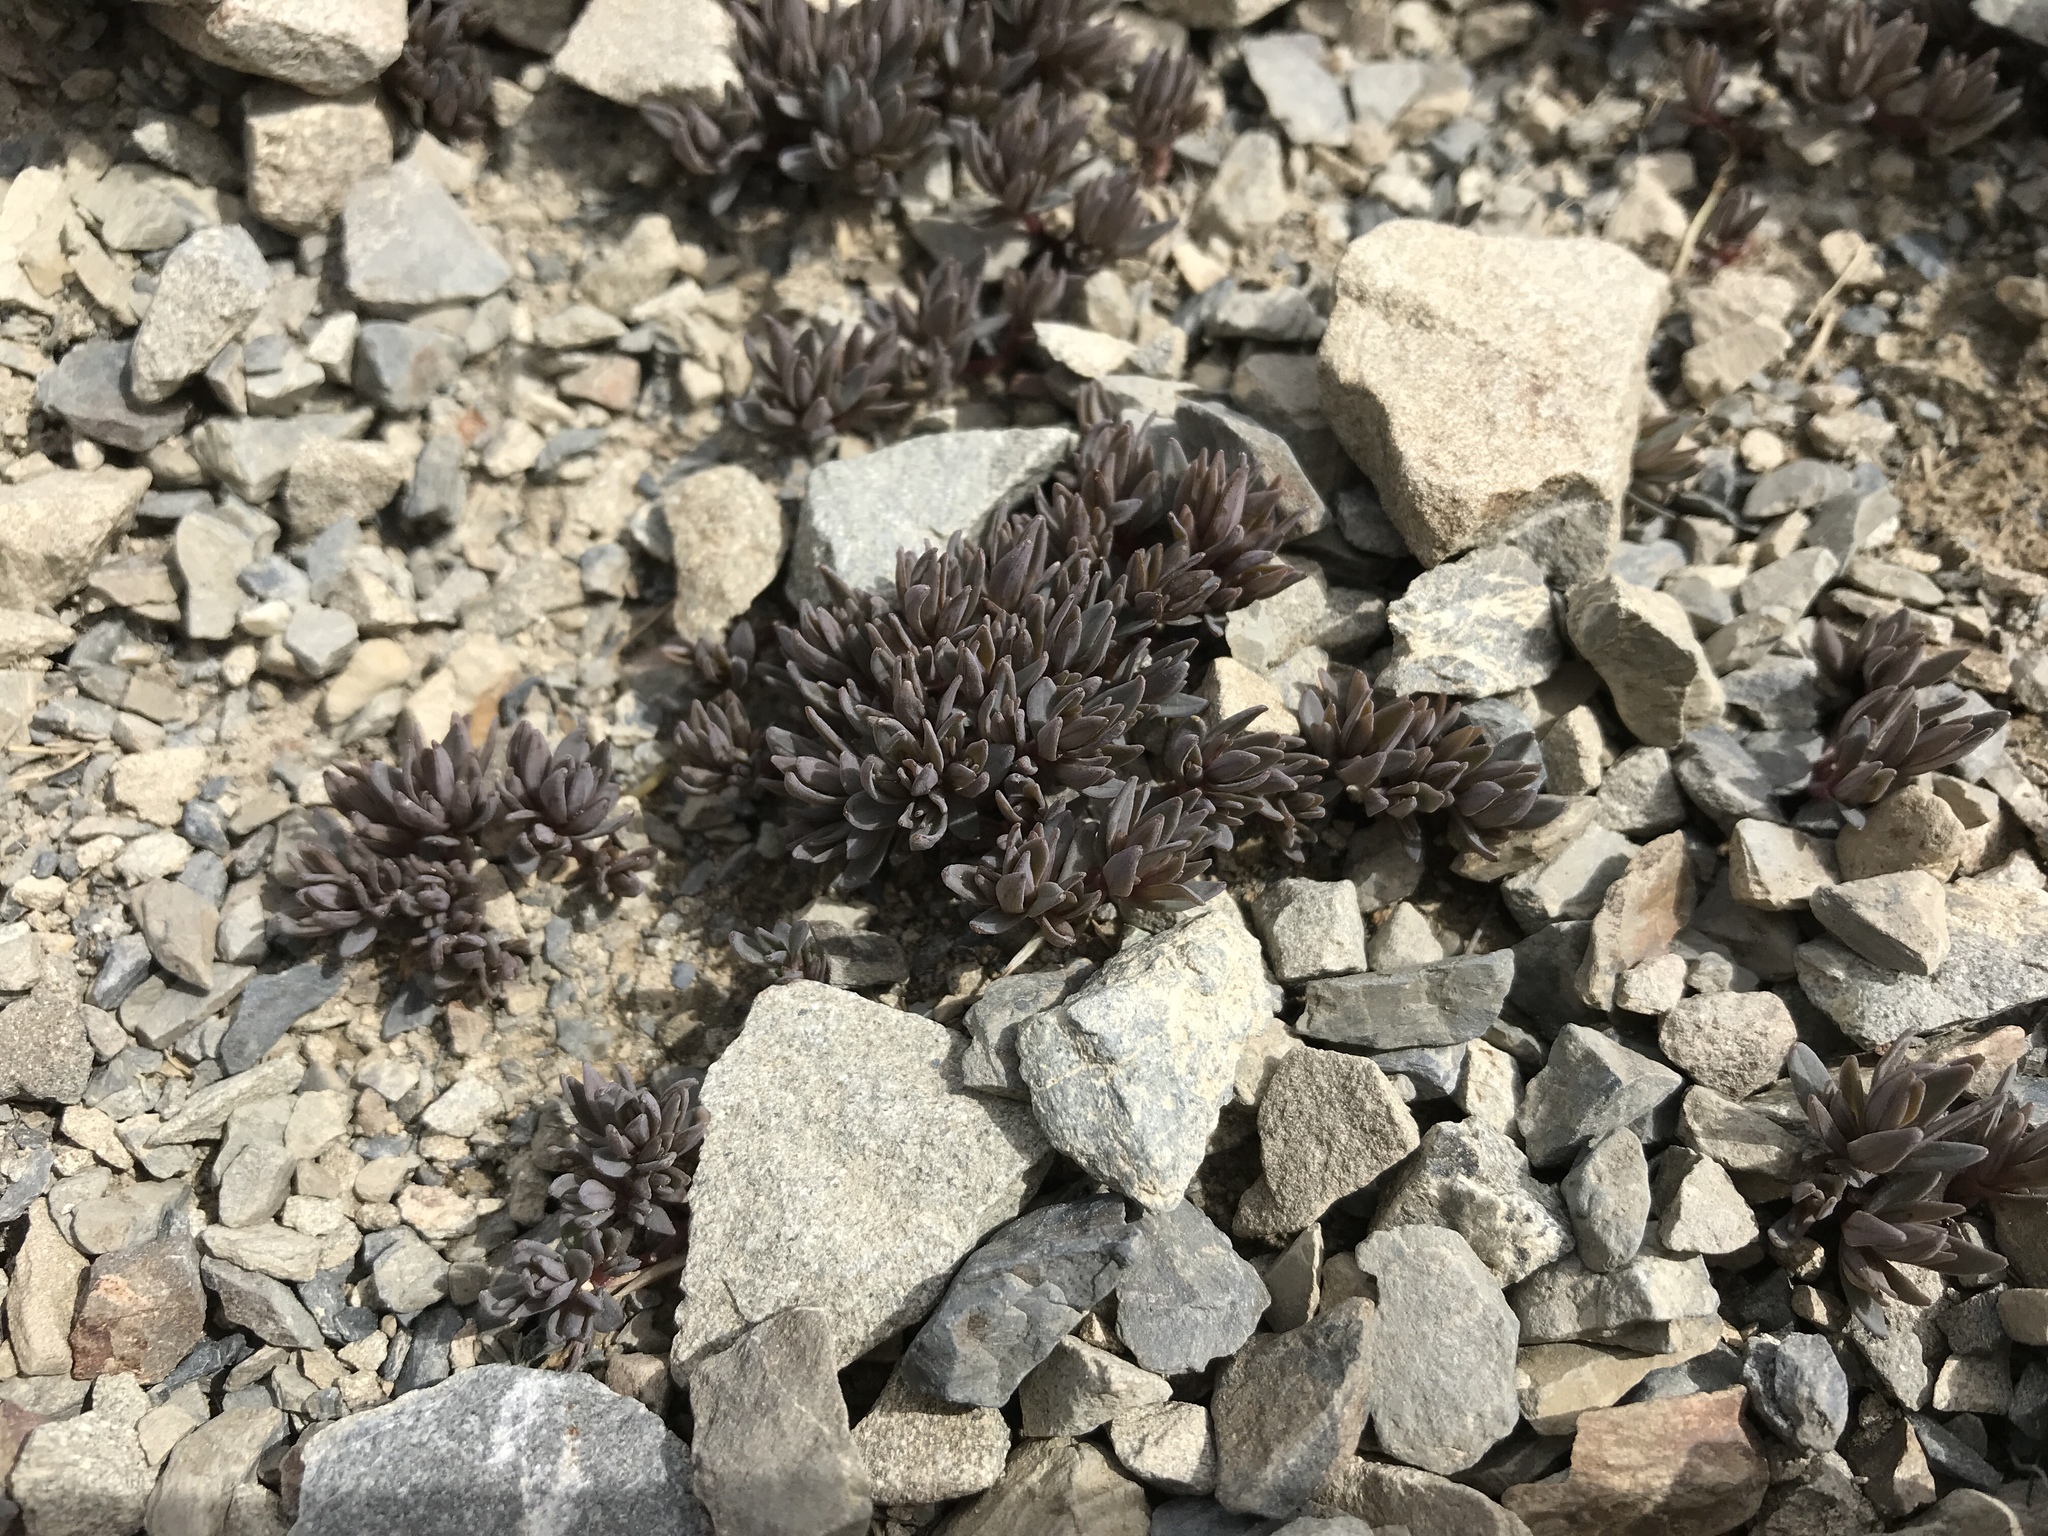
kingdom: Plantae
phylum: Tracheophyta
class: Magnoliopsida
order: Caryophyllales
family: Caryophyllaceae
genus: Stellaria
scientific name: Stellaria roughii
